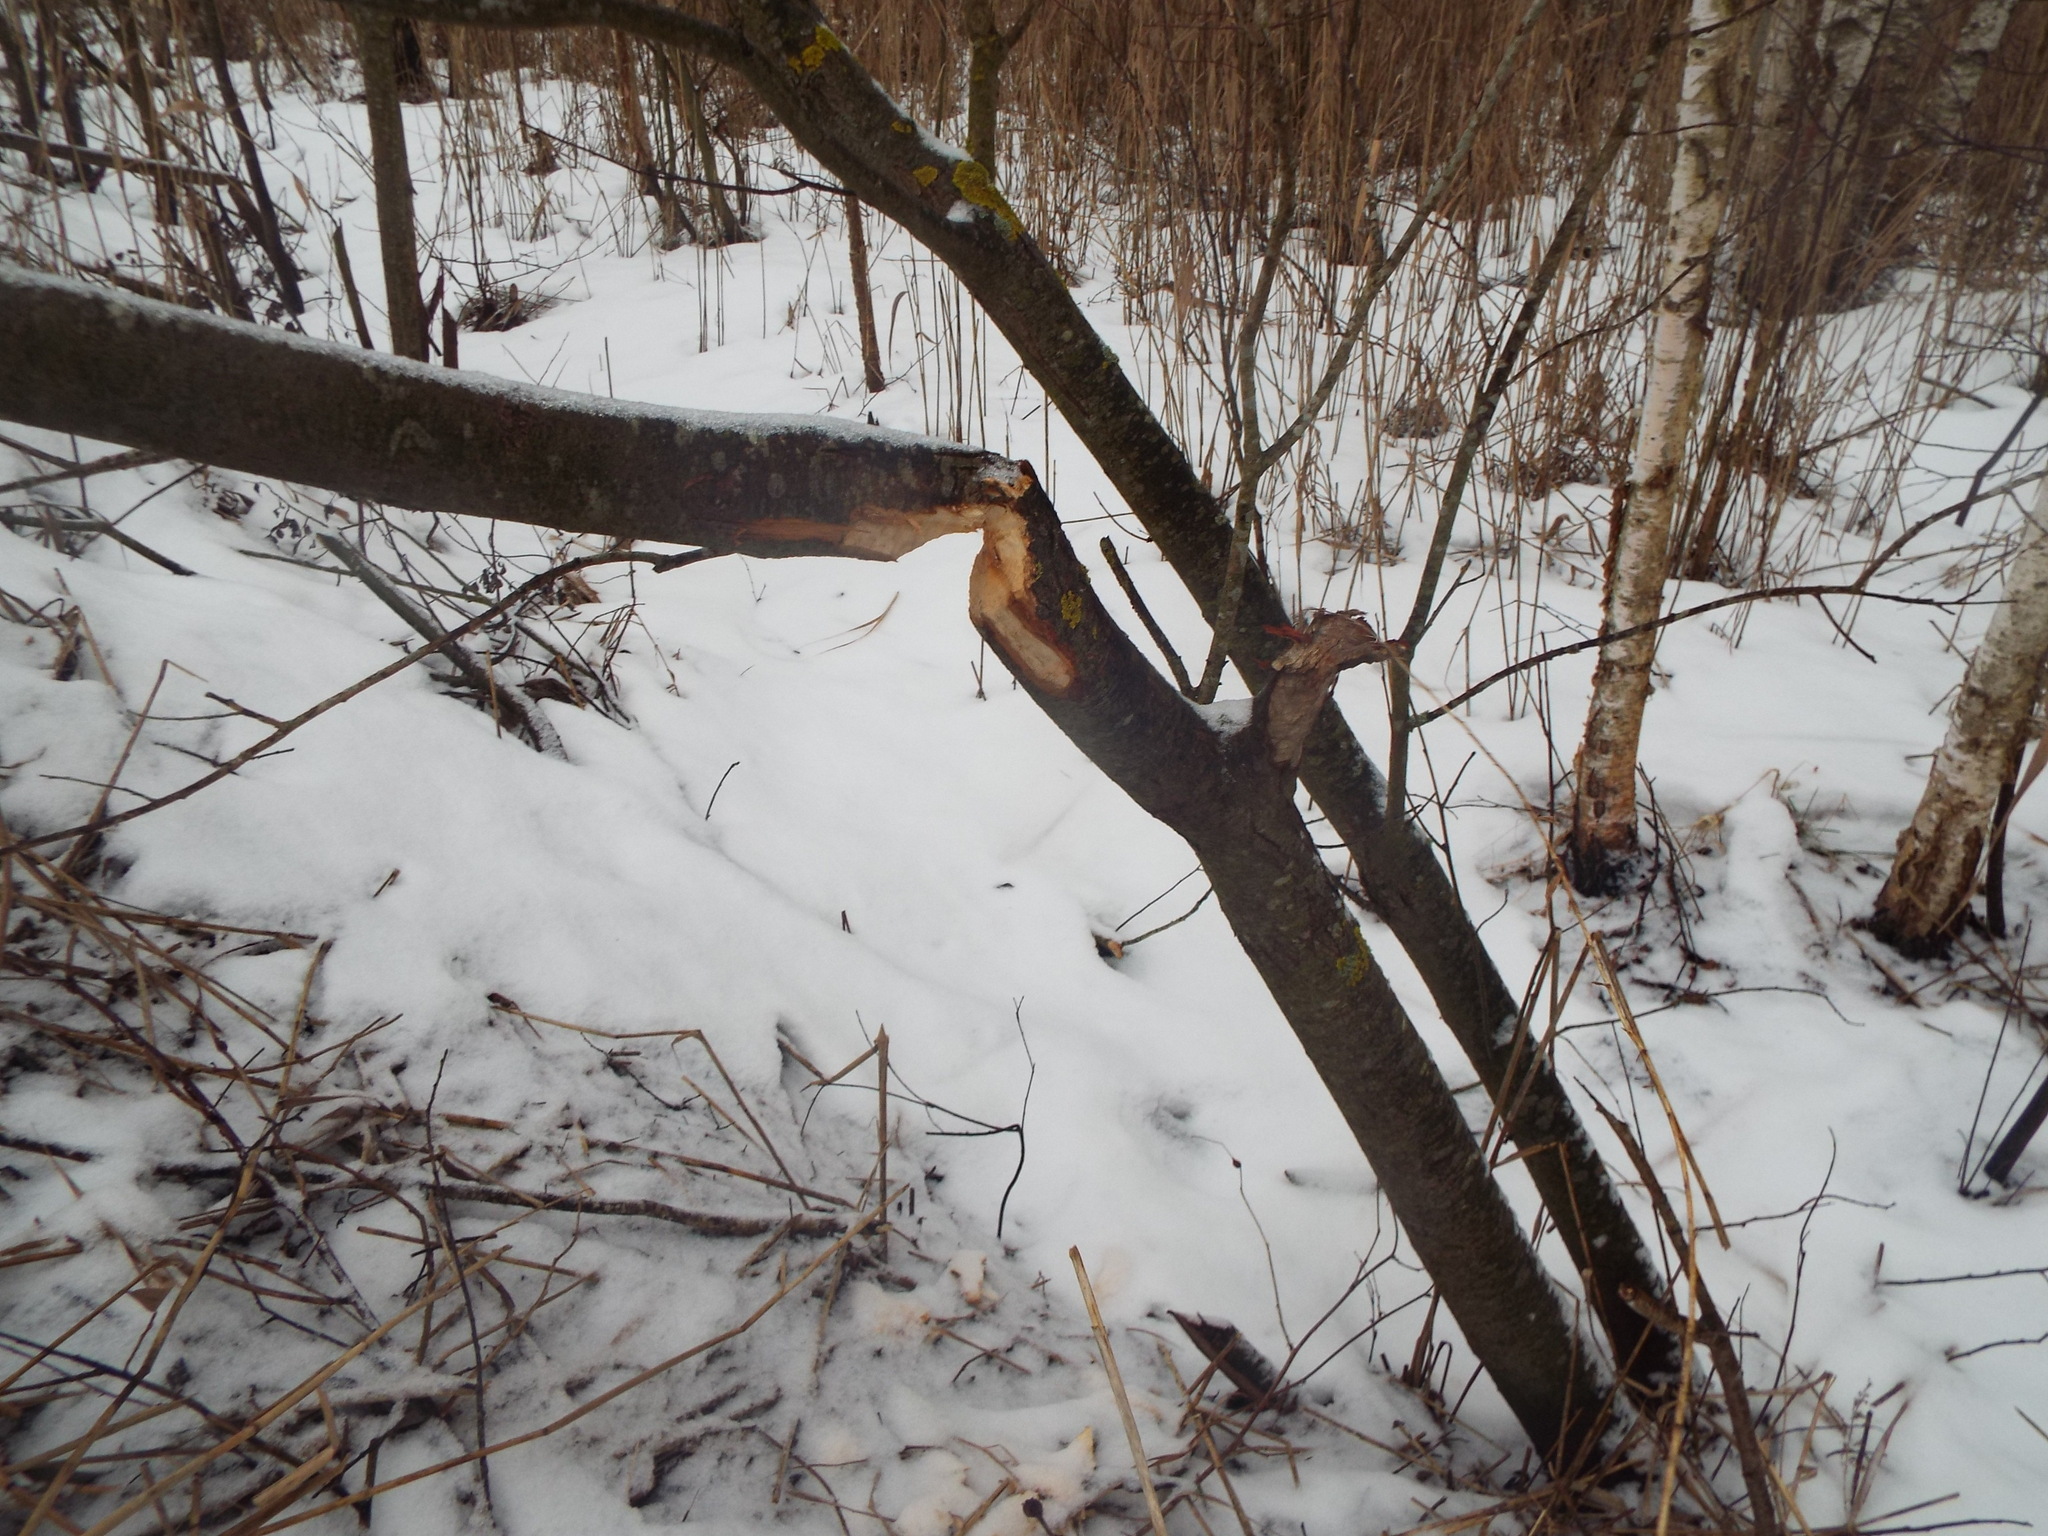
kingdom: Animalia
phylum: Chordata
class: Mammalia
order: Rodentia
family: Castoridae
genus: Castor
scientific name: Castor fiber
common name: Eurasian beaver
